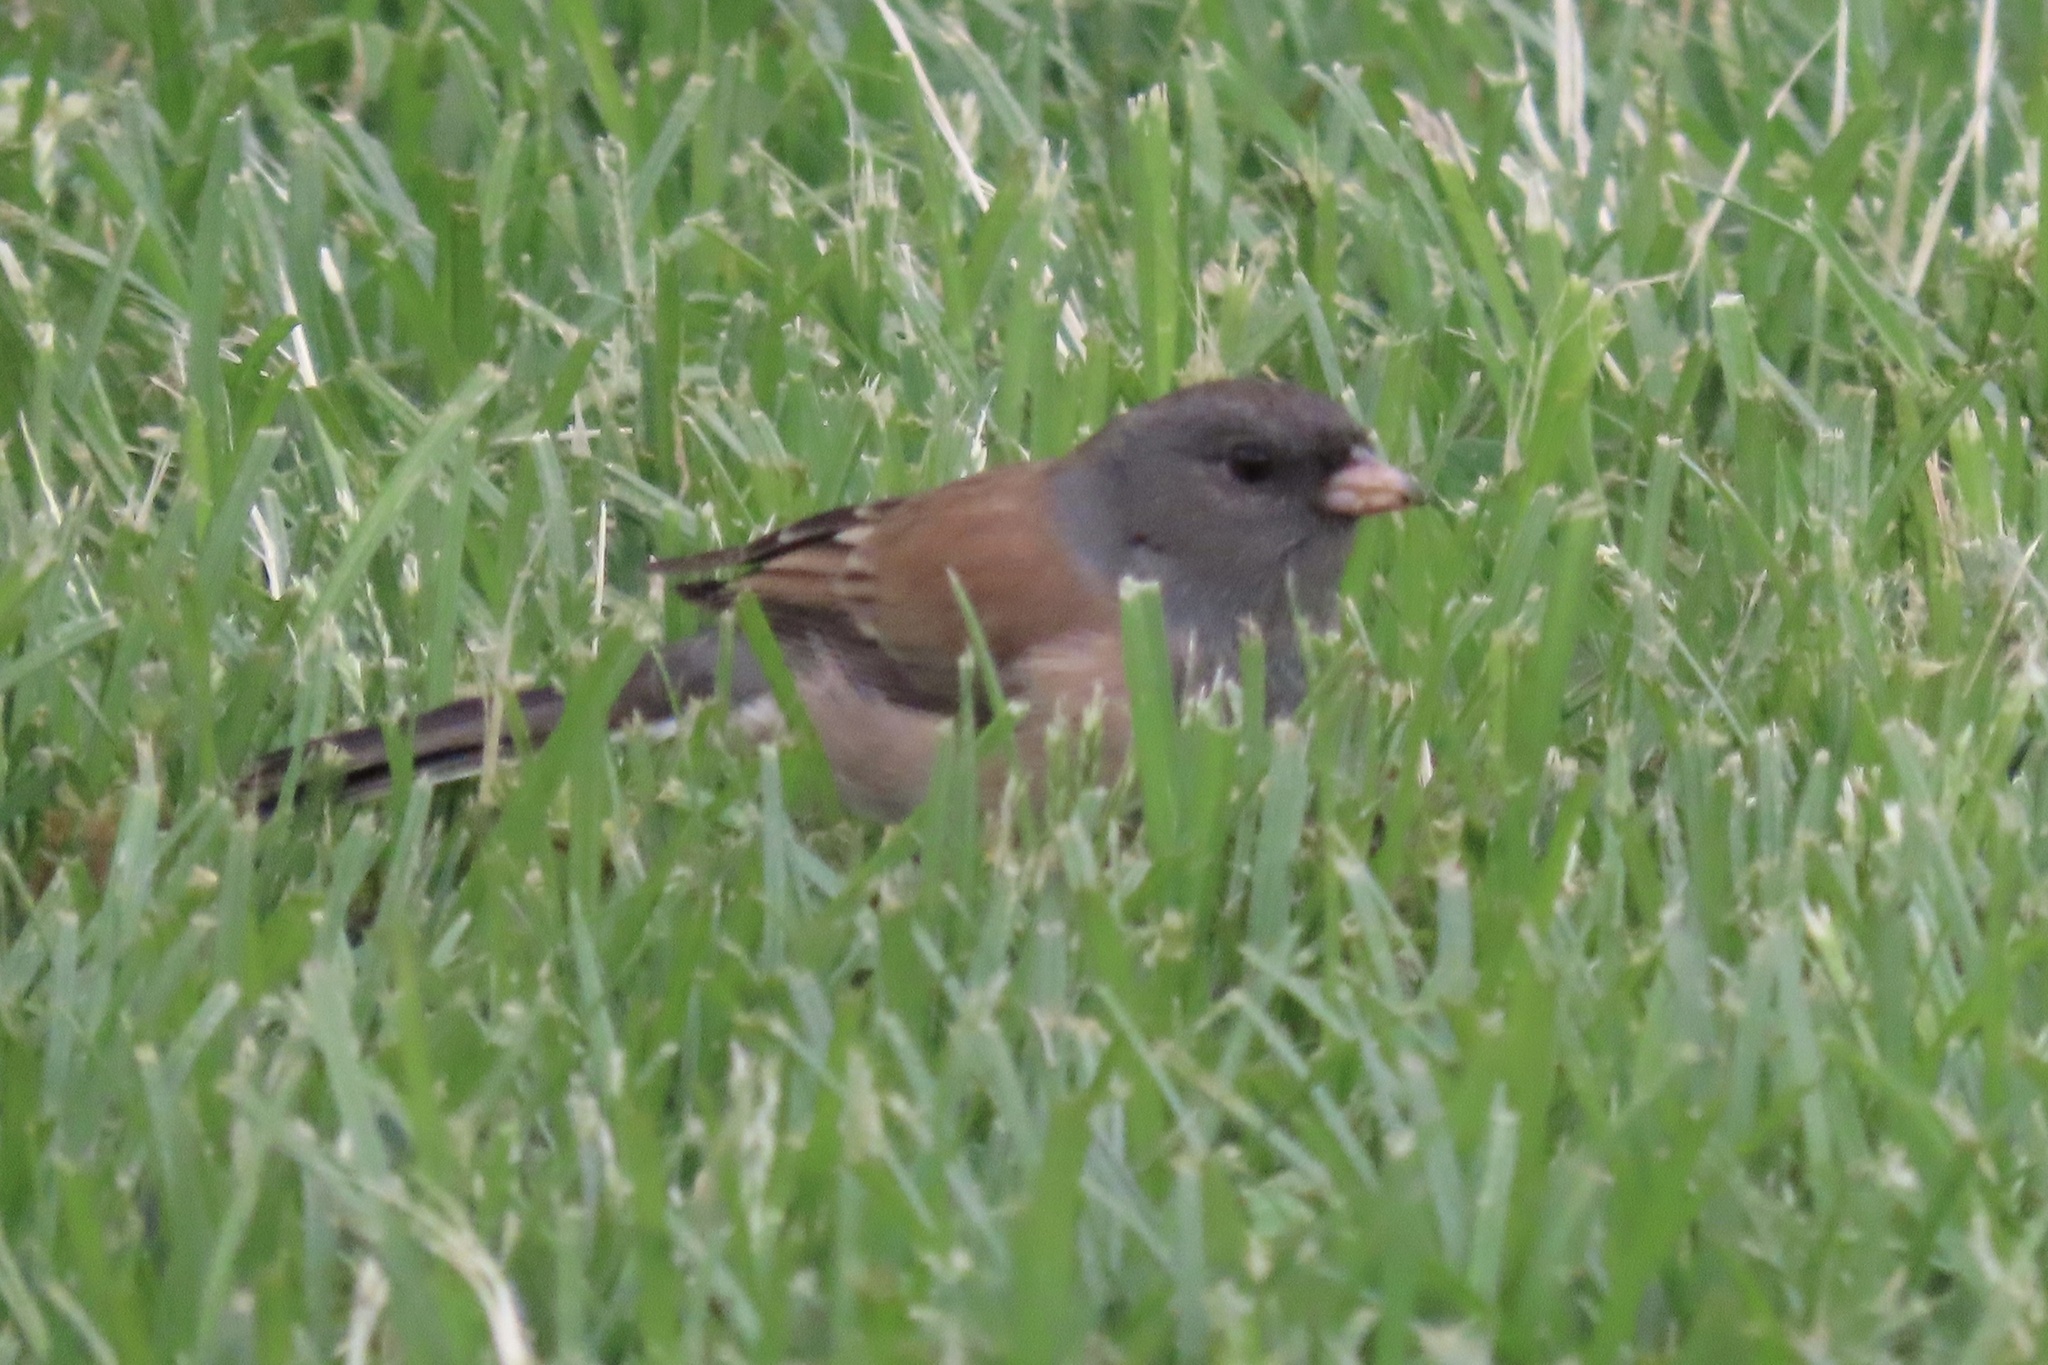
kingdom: Animalia
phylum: Chordata
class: Aves
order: Passeriformes
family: Passerellidae
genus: Junco
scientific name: Junco hyemalis
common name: Dark-eyed junco
